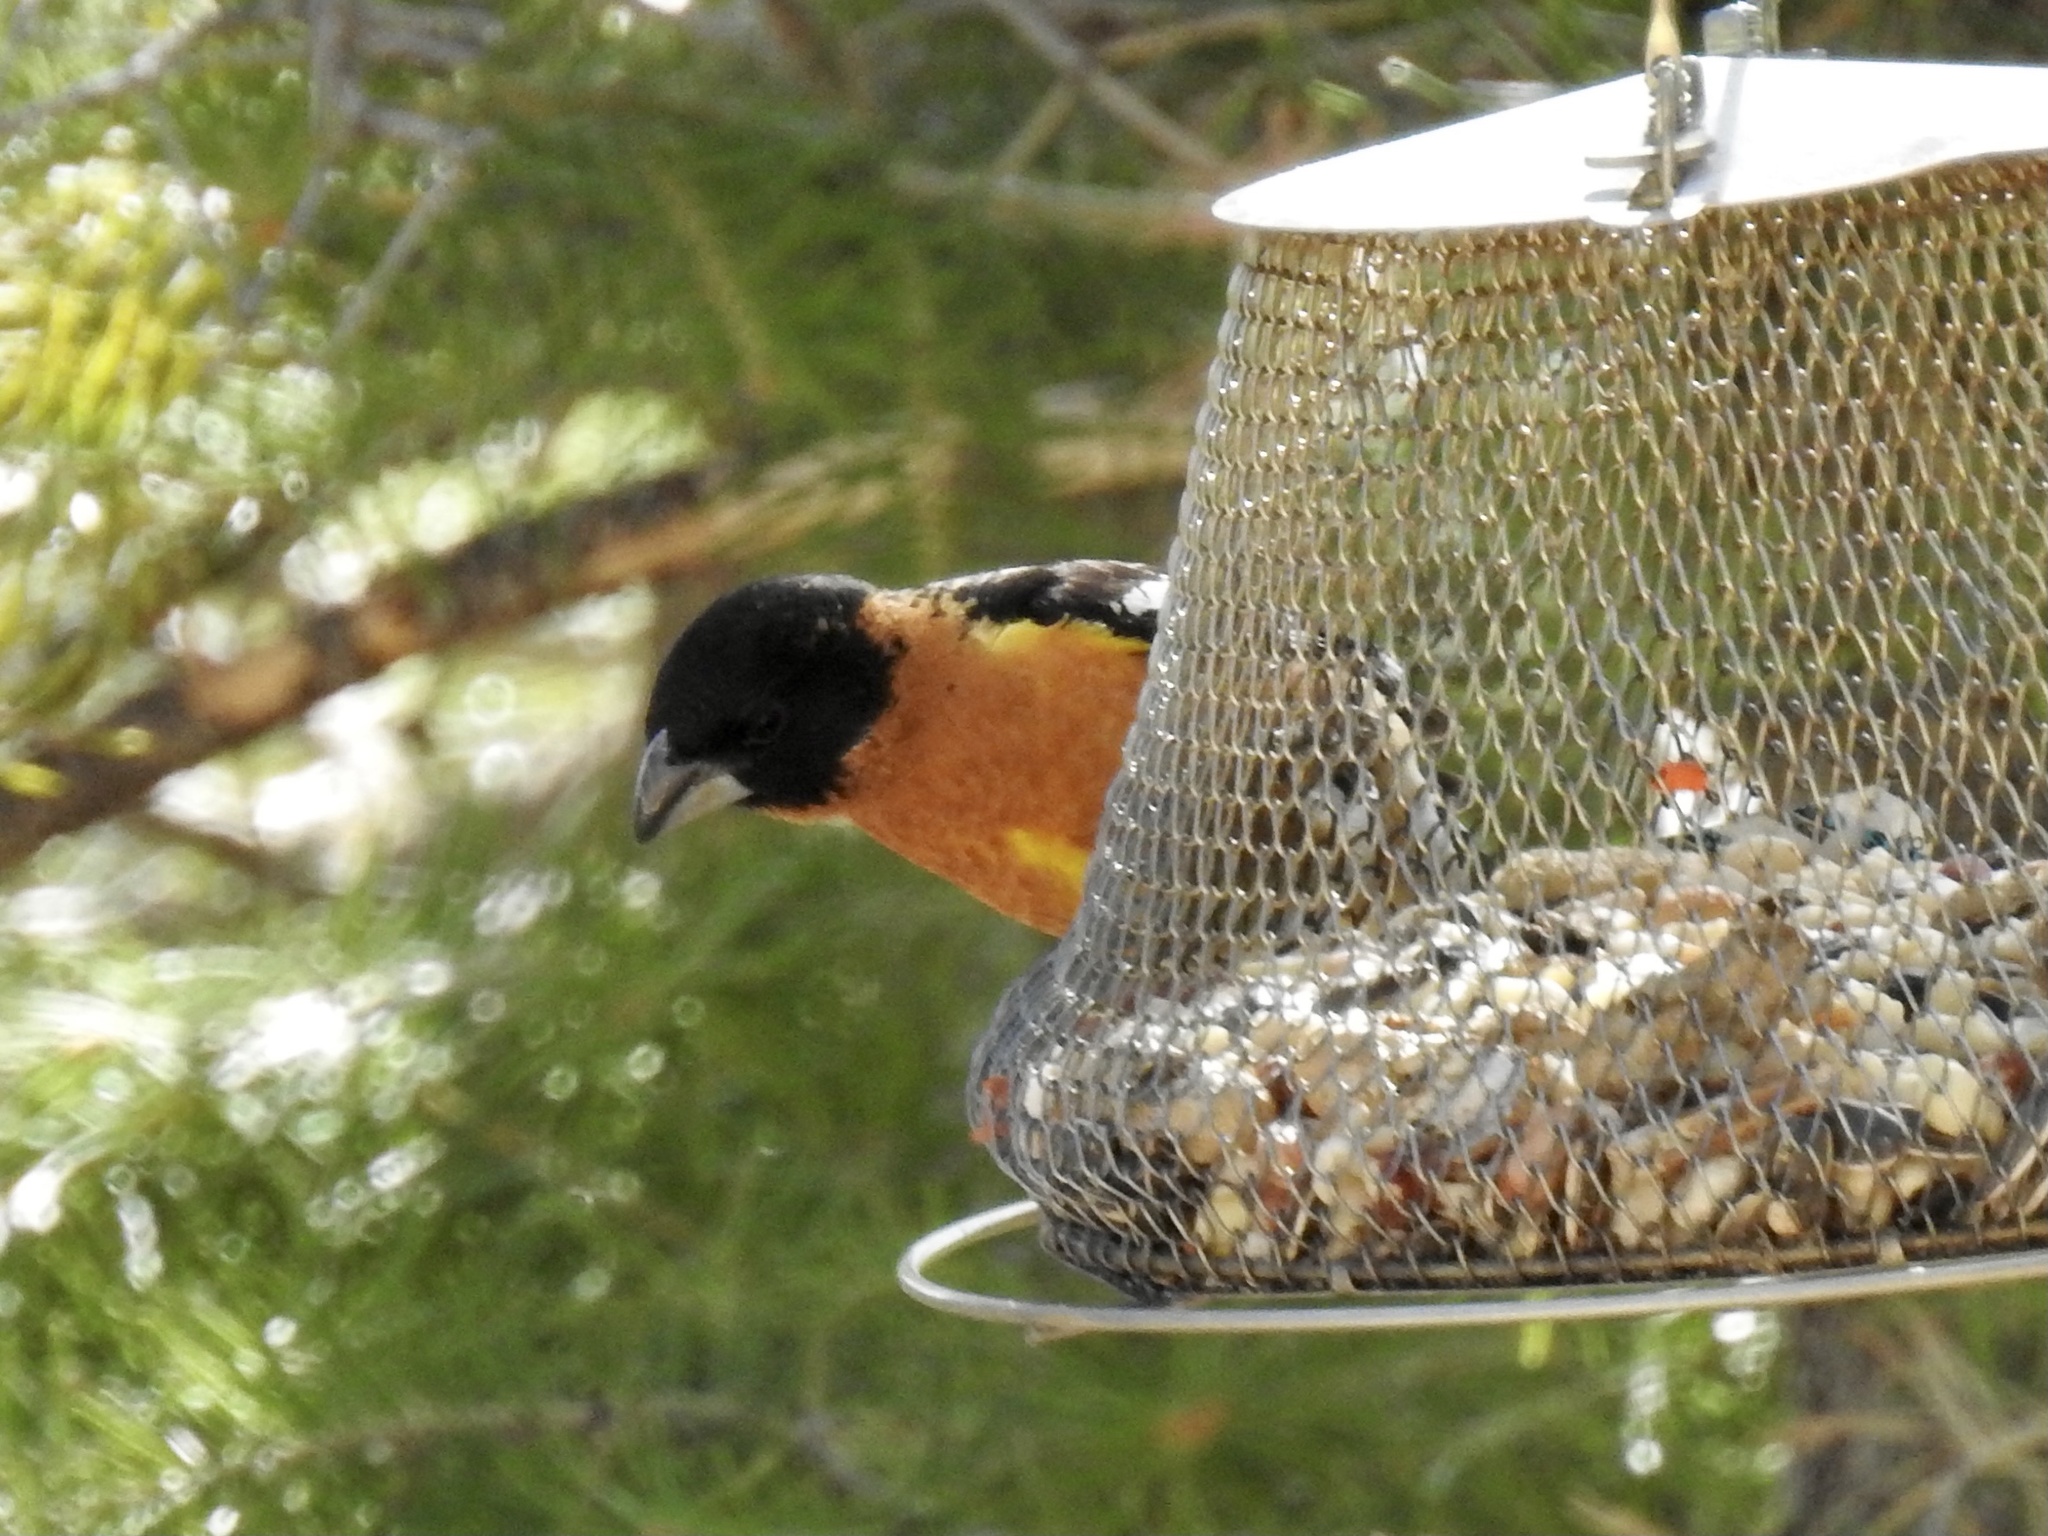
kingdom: Animalia
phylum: Chordata
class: Aves
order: Passeriformes
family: Cardinalidae
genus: Pheucticus
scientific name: Pheucticus melanocephalus
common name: Black-headed grosbeak
